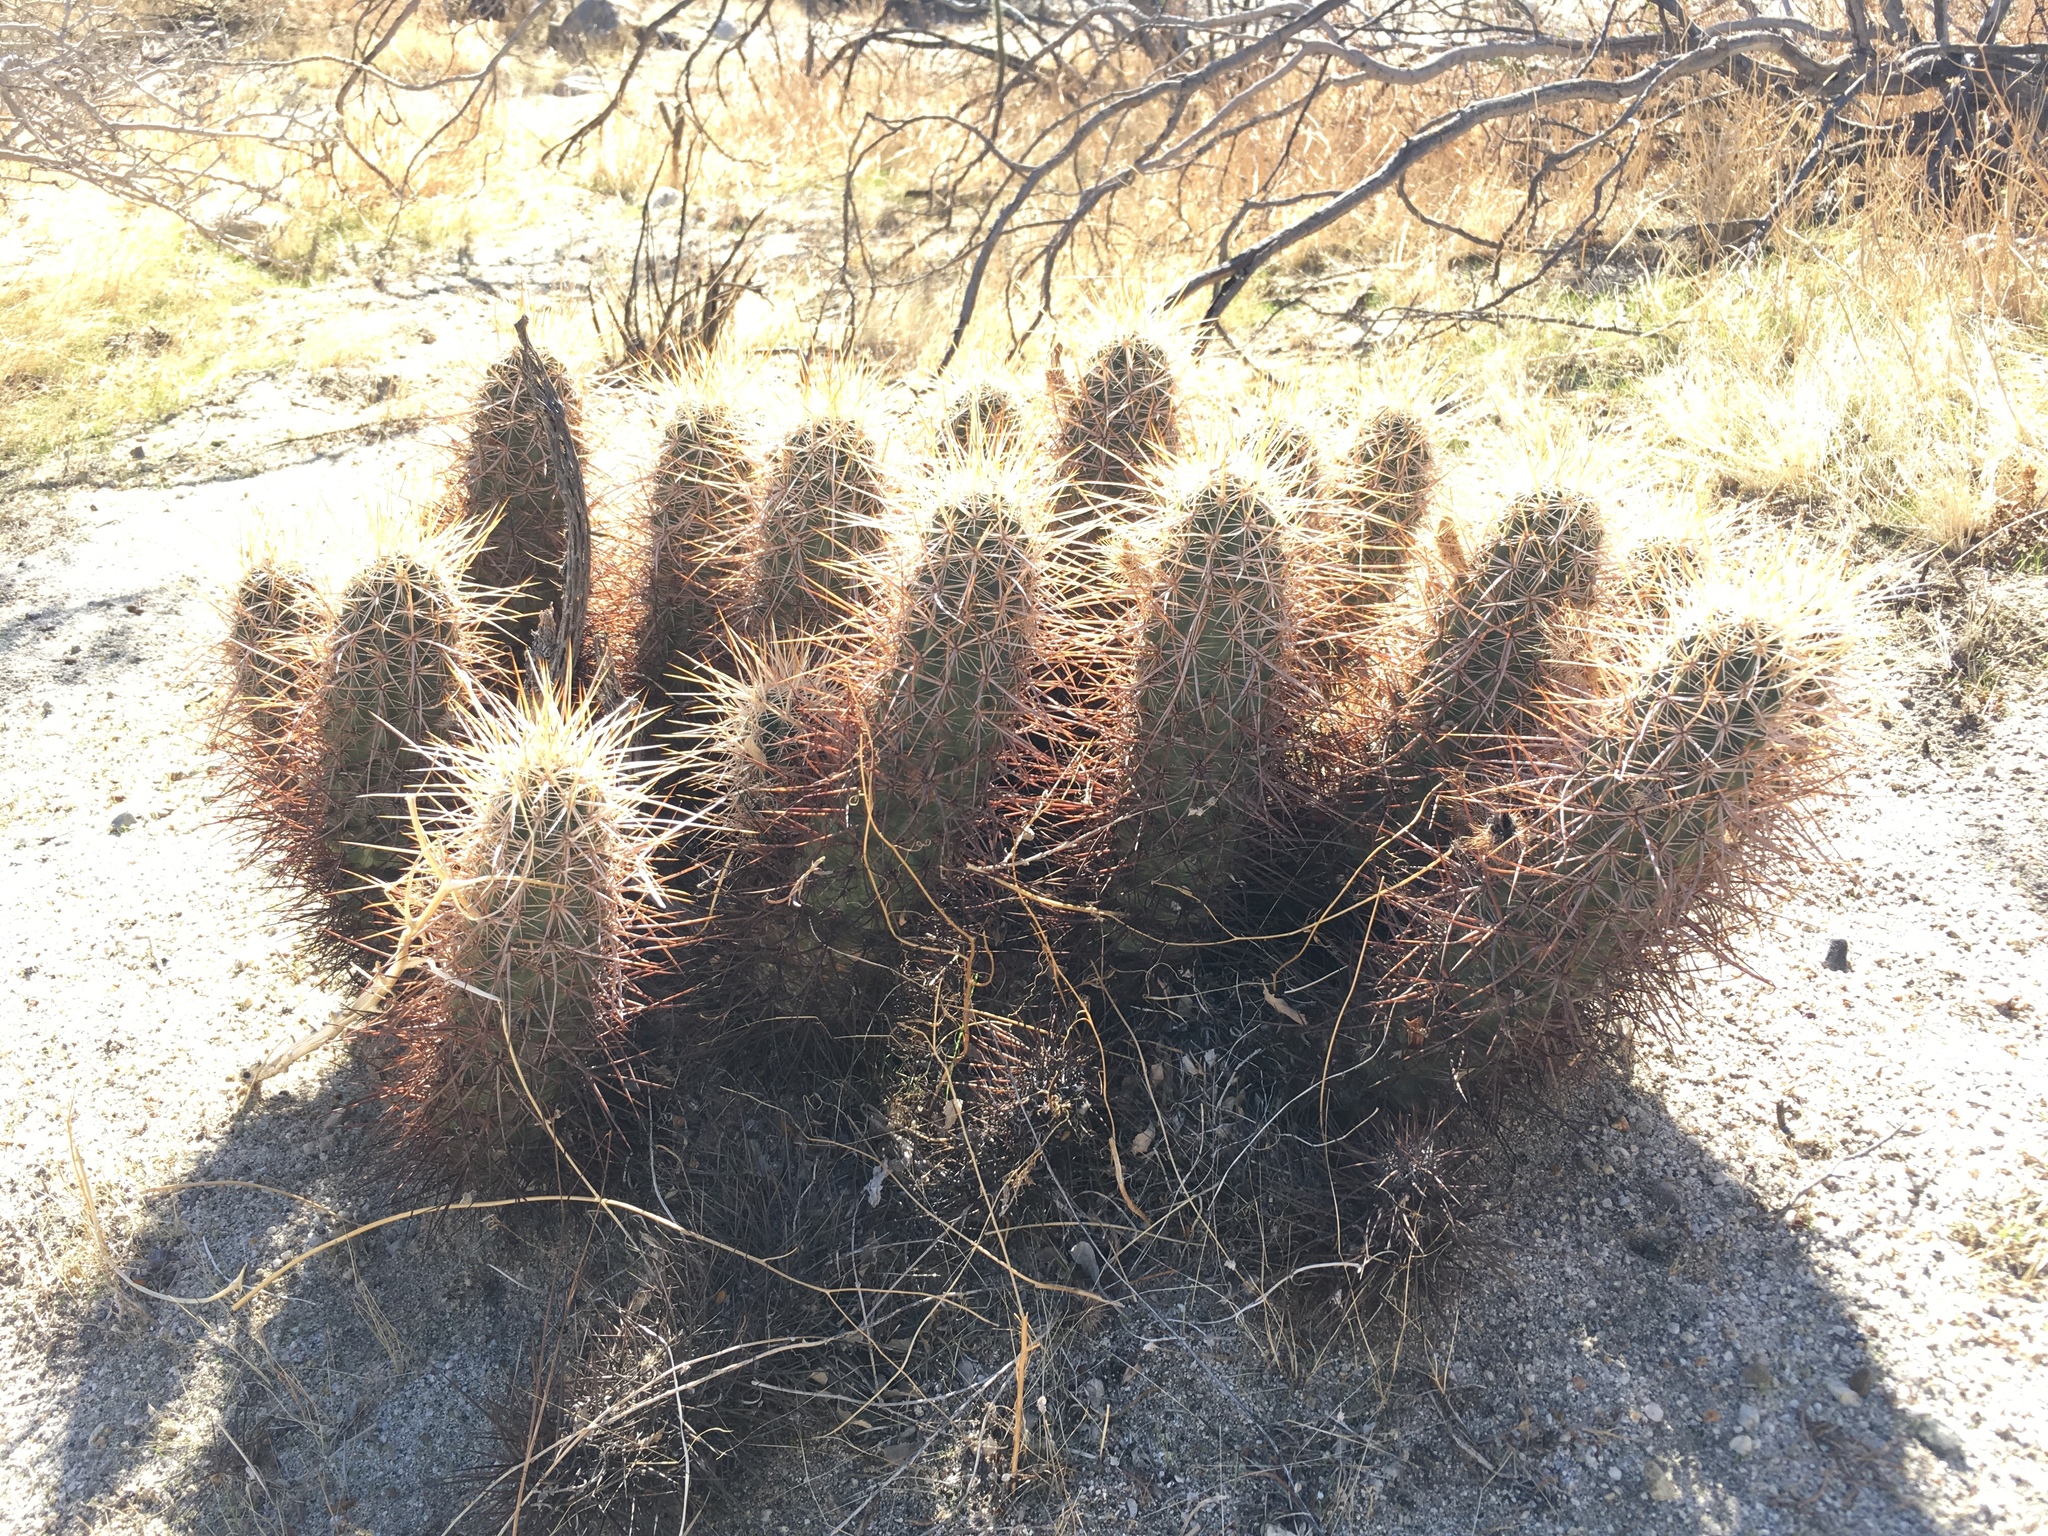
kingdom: Plantae
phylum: Tracheophyta
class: Magnoliopsida
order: Caryophyllales
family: Cactaceae
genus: Echinocereus
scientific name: Echinocereus engelmannii
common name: Engelmann's hedgehog cactus
